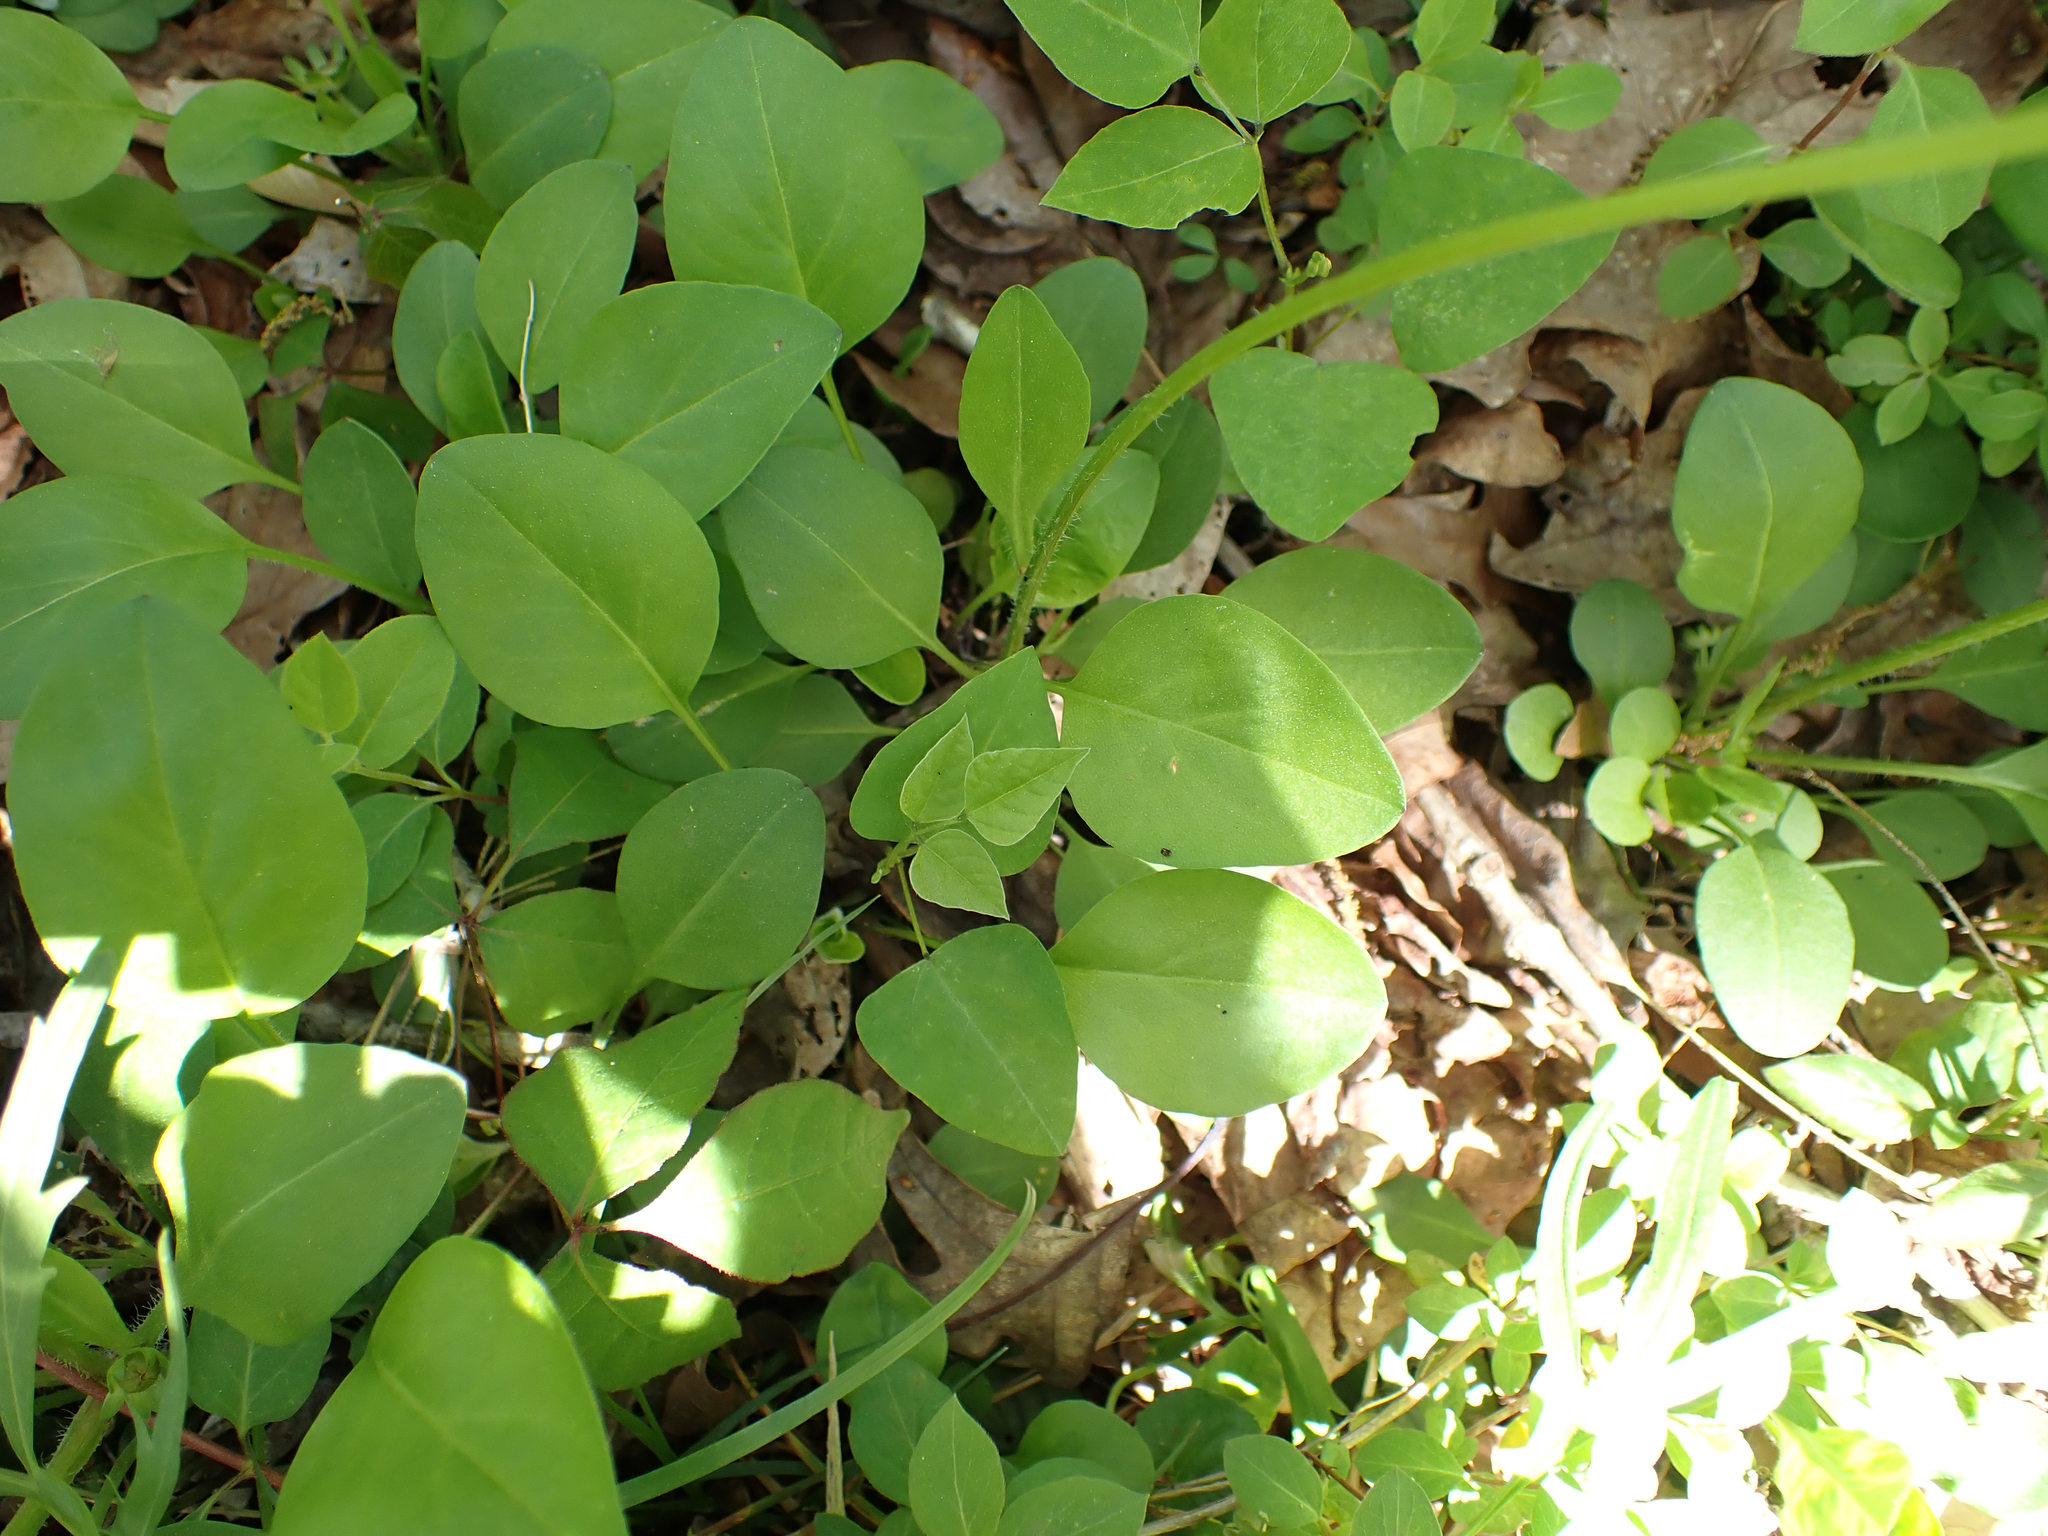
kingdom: Plantae
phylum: Tracheophyta
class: Magnoliopsida
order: Asterales
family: Asteraceae
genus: Coreopsis
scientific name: Coreopsis auriculata
